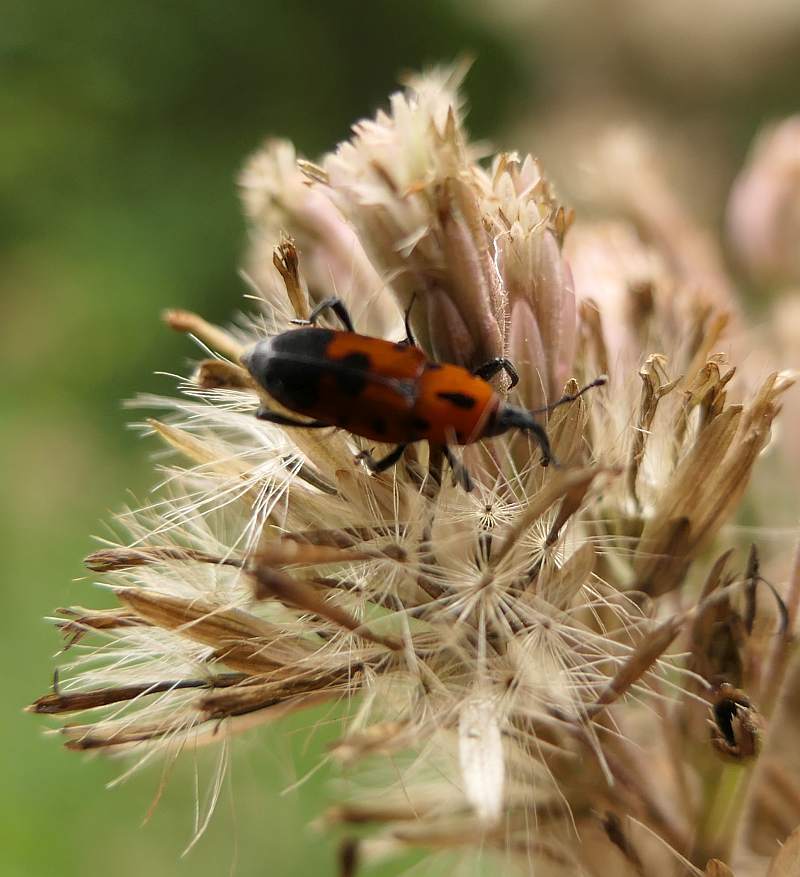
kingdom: Animalia
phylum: Arthropoda
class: Insecta
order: Coleoptera
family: Dryophthoridae
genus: Rhodobaenus
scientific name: Rhodobaenus quinquepunctatus
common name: Cocklebur weevil
